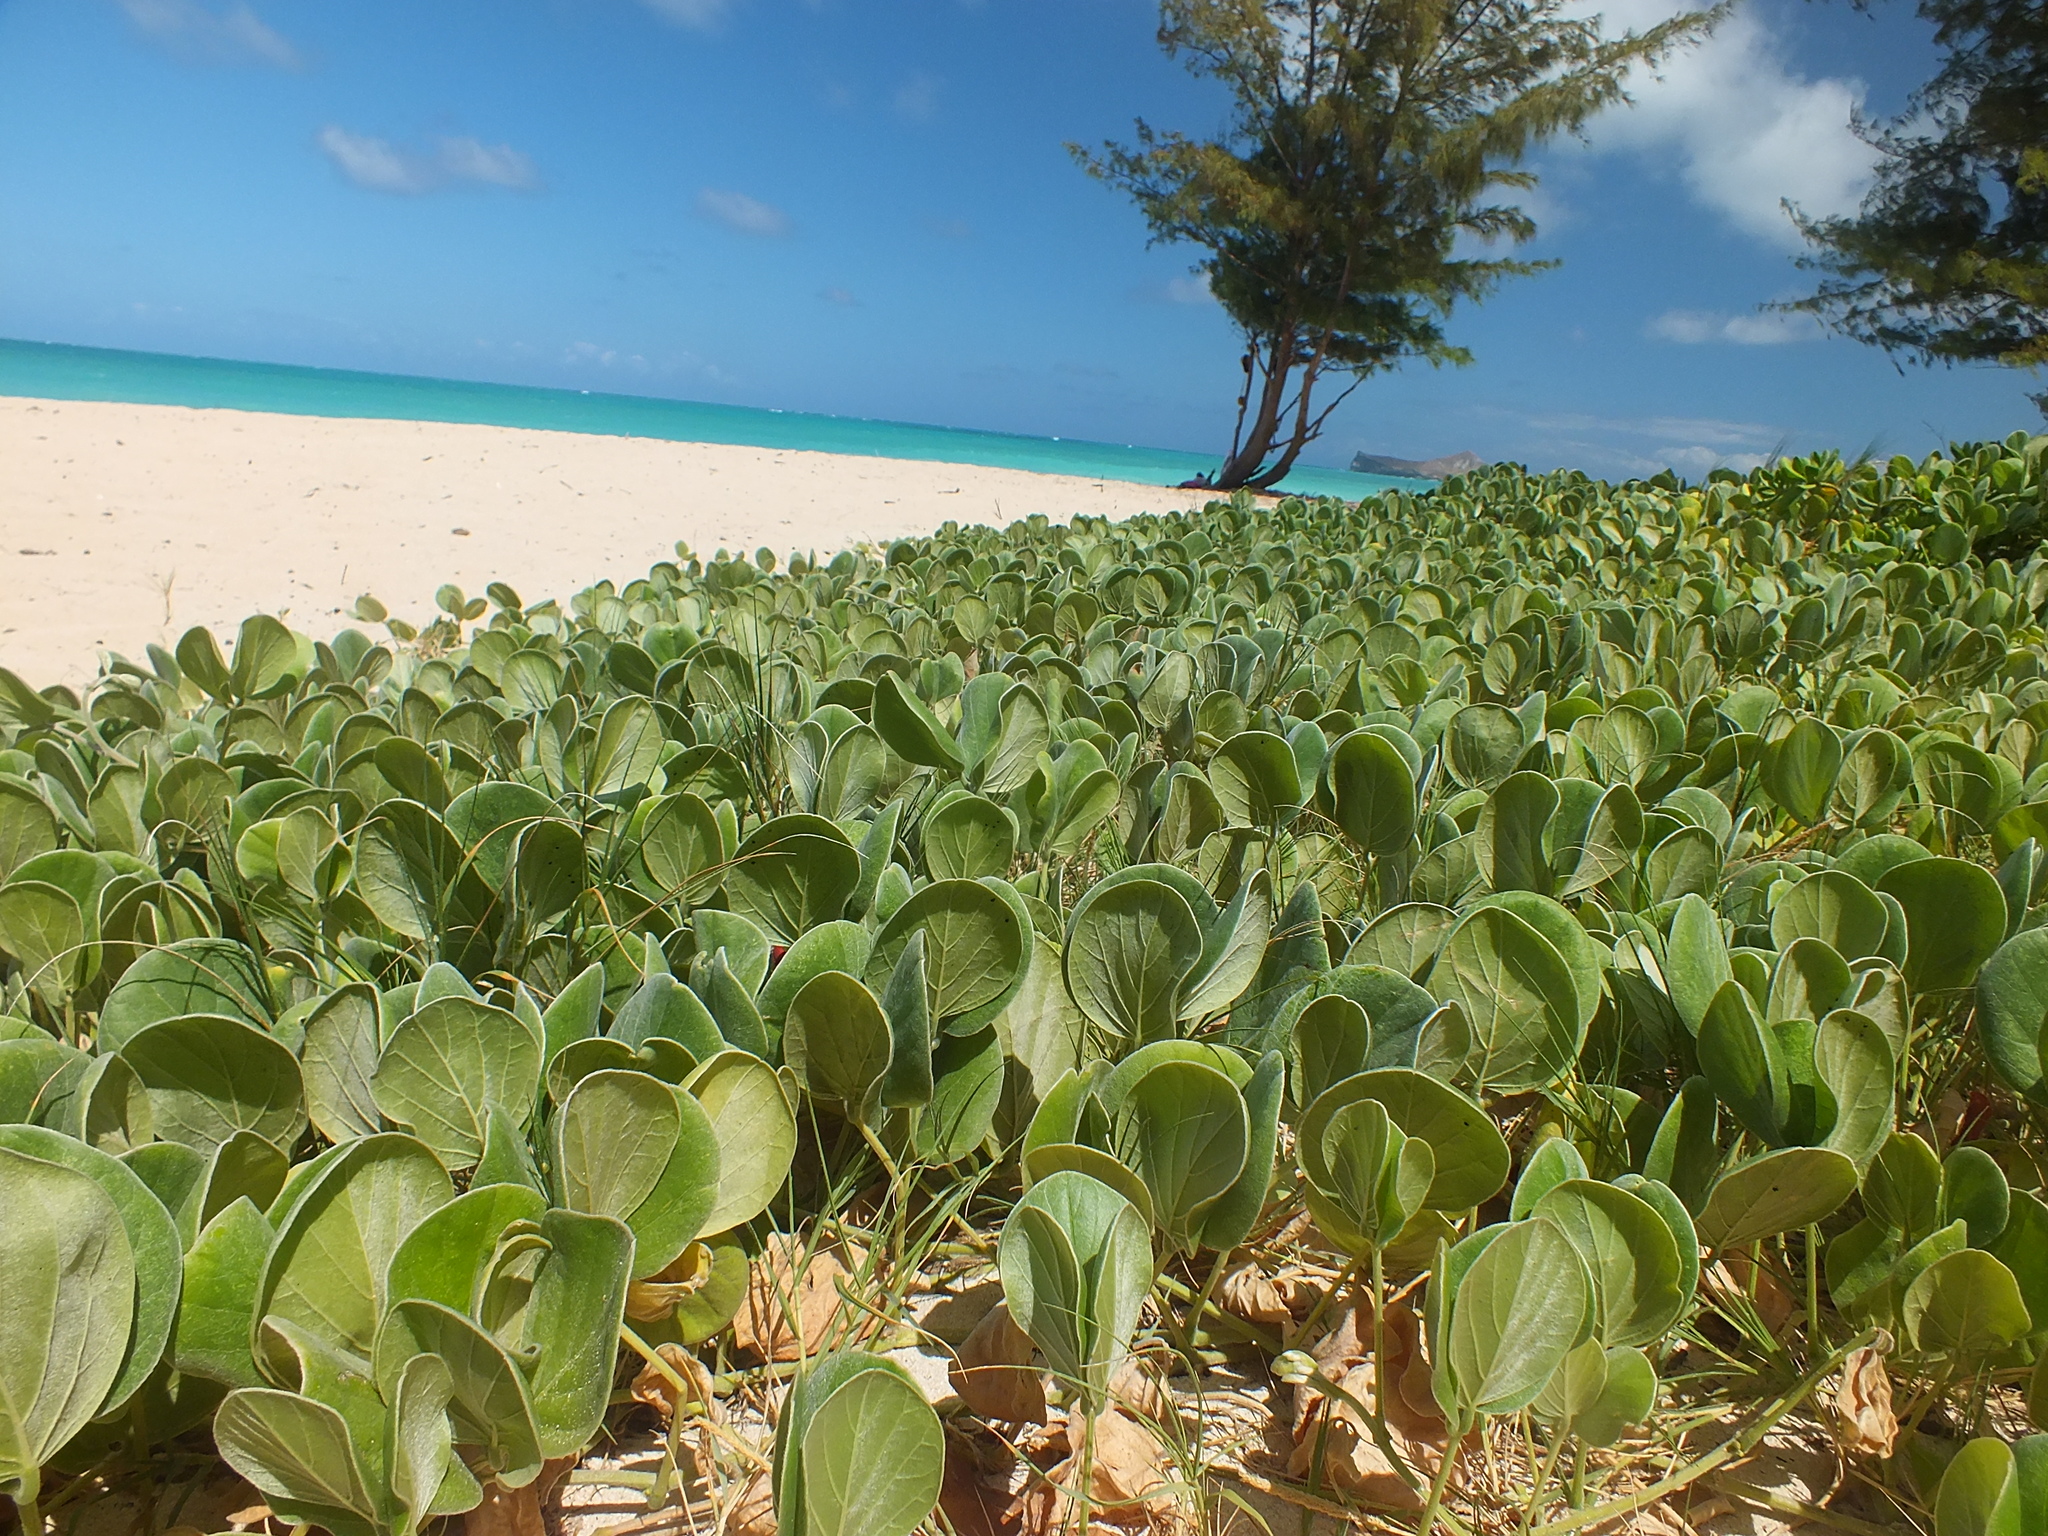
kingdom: Plantae
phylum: Tracheophyta
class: Magnoliopsida
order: Fabales
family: Fabaceae
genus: Canavalia
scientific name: Canavalia sericea
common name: Silky jackbean
